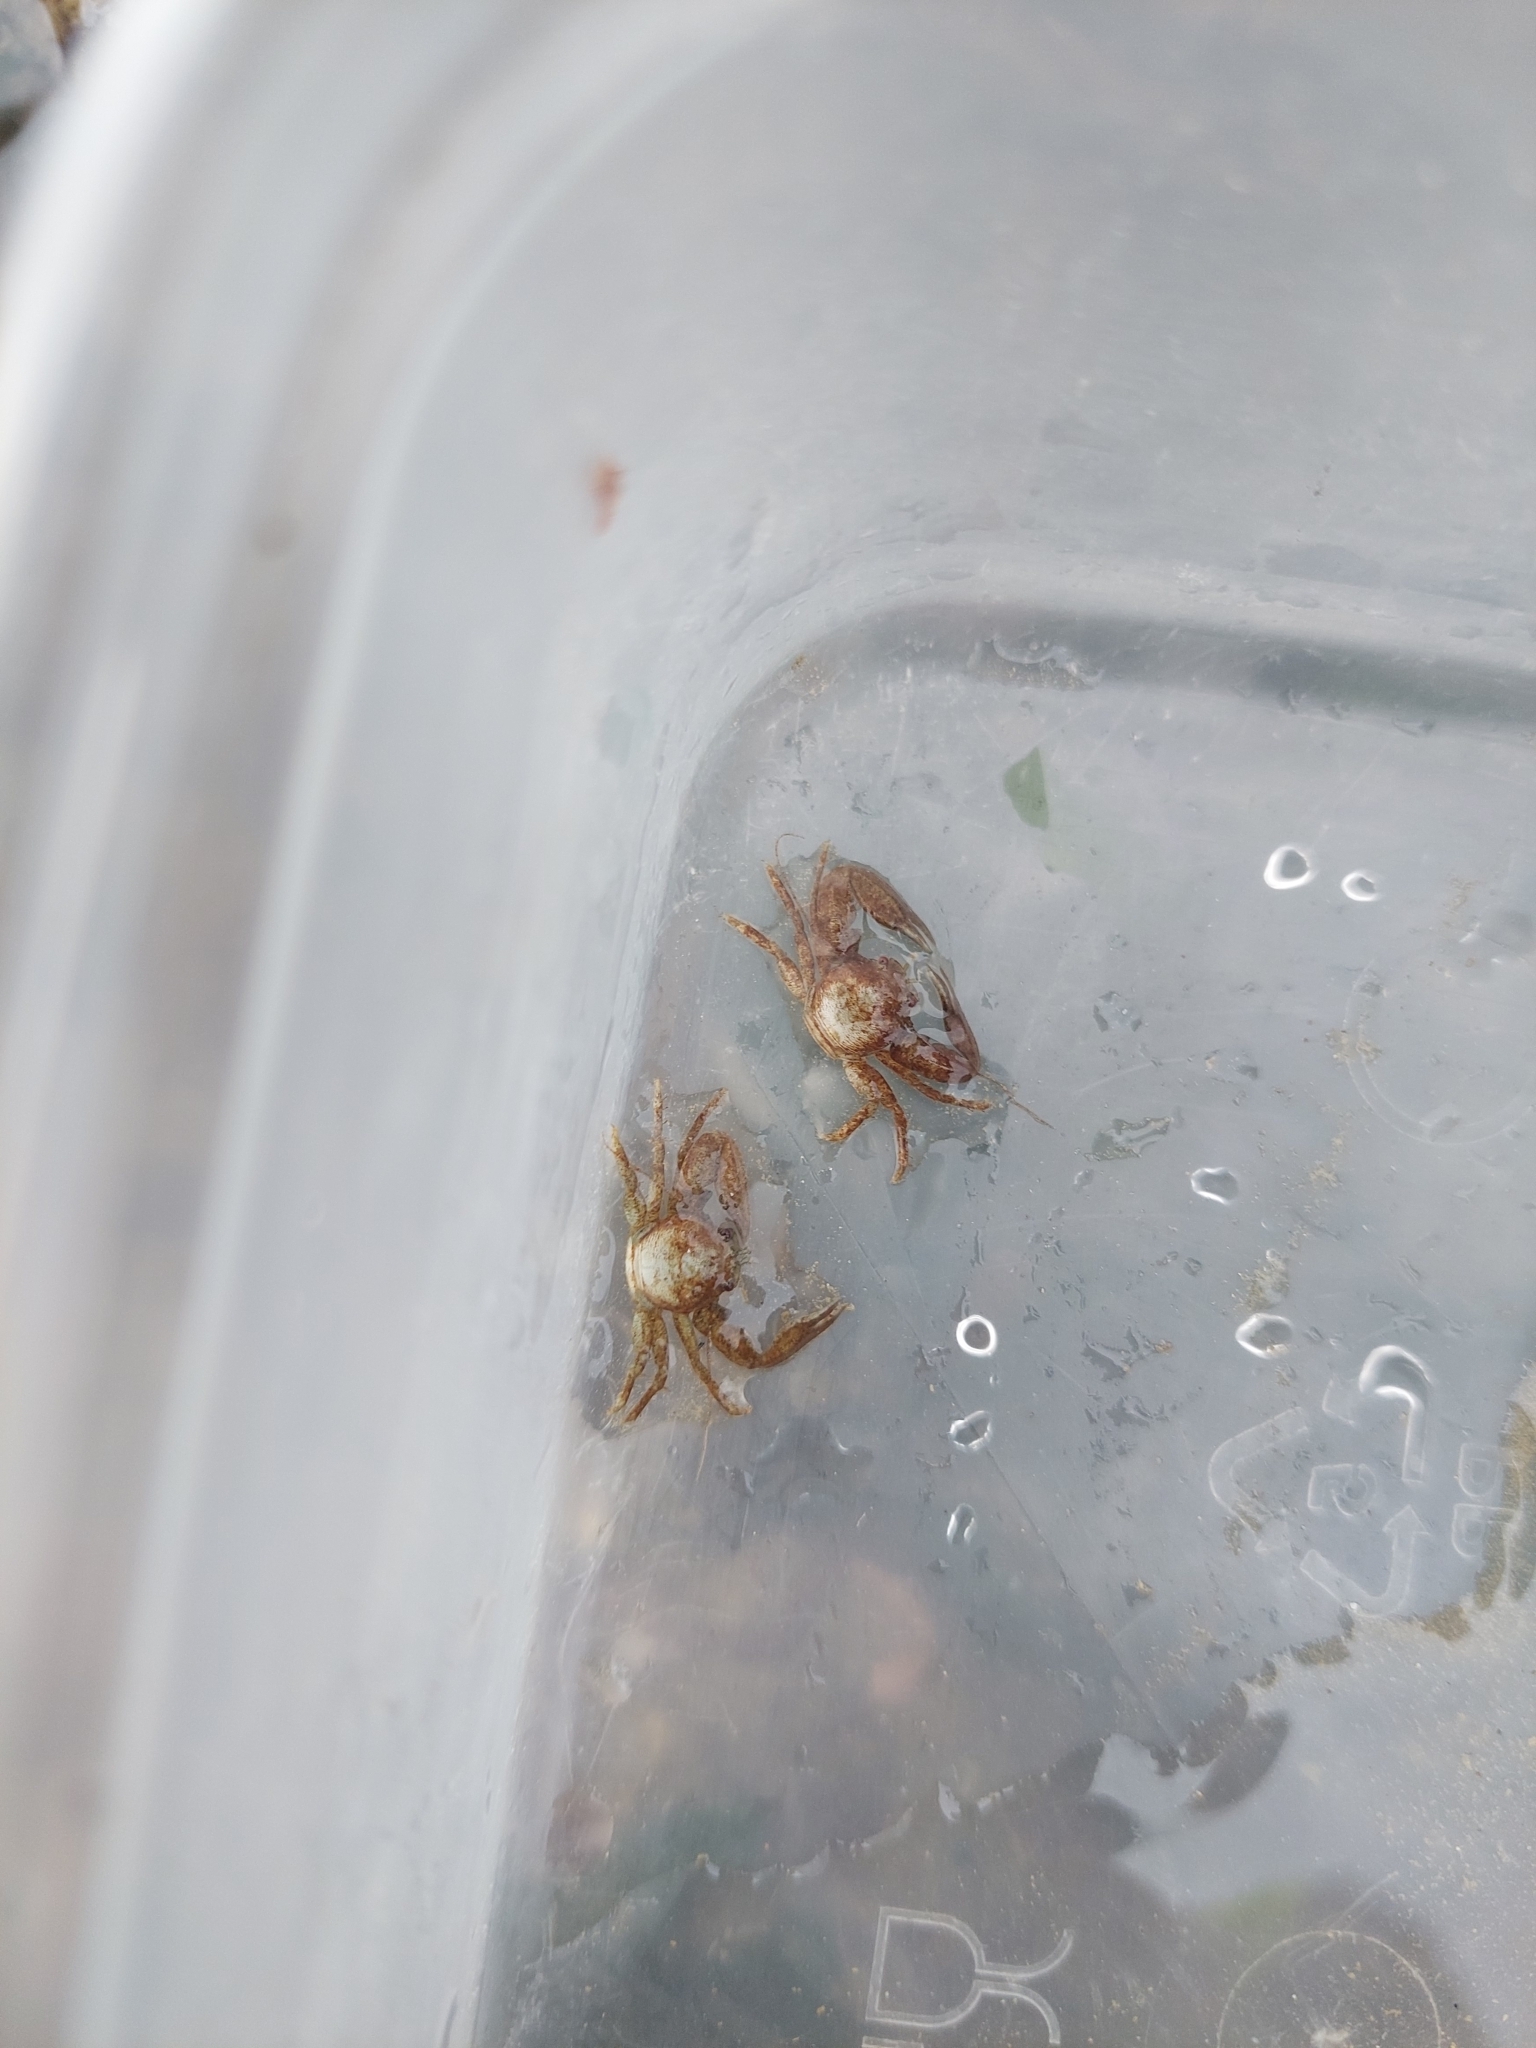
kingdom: Animalia
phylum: Arthropoda
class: Malacostraca
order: Decapoda
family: Porcellanidae
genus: Pisidia
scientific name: Pisidia longicornis
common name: Long clawed porcelain crab
